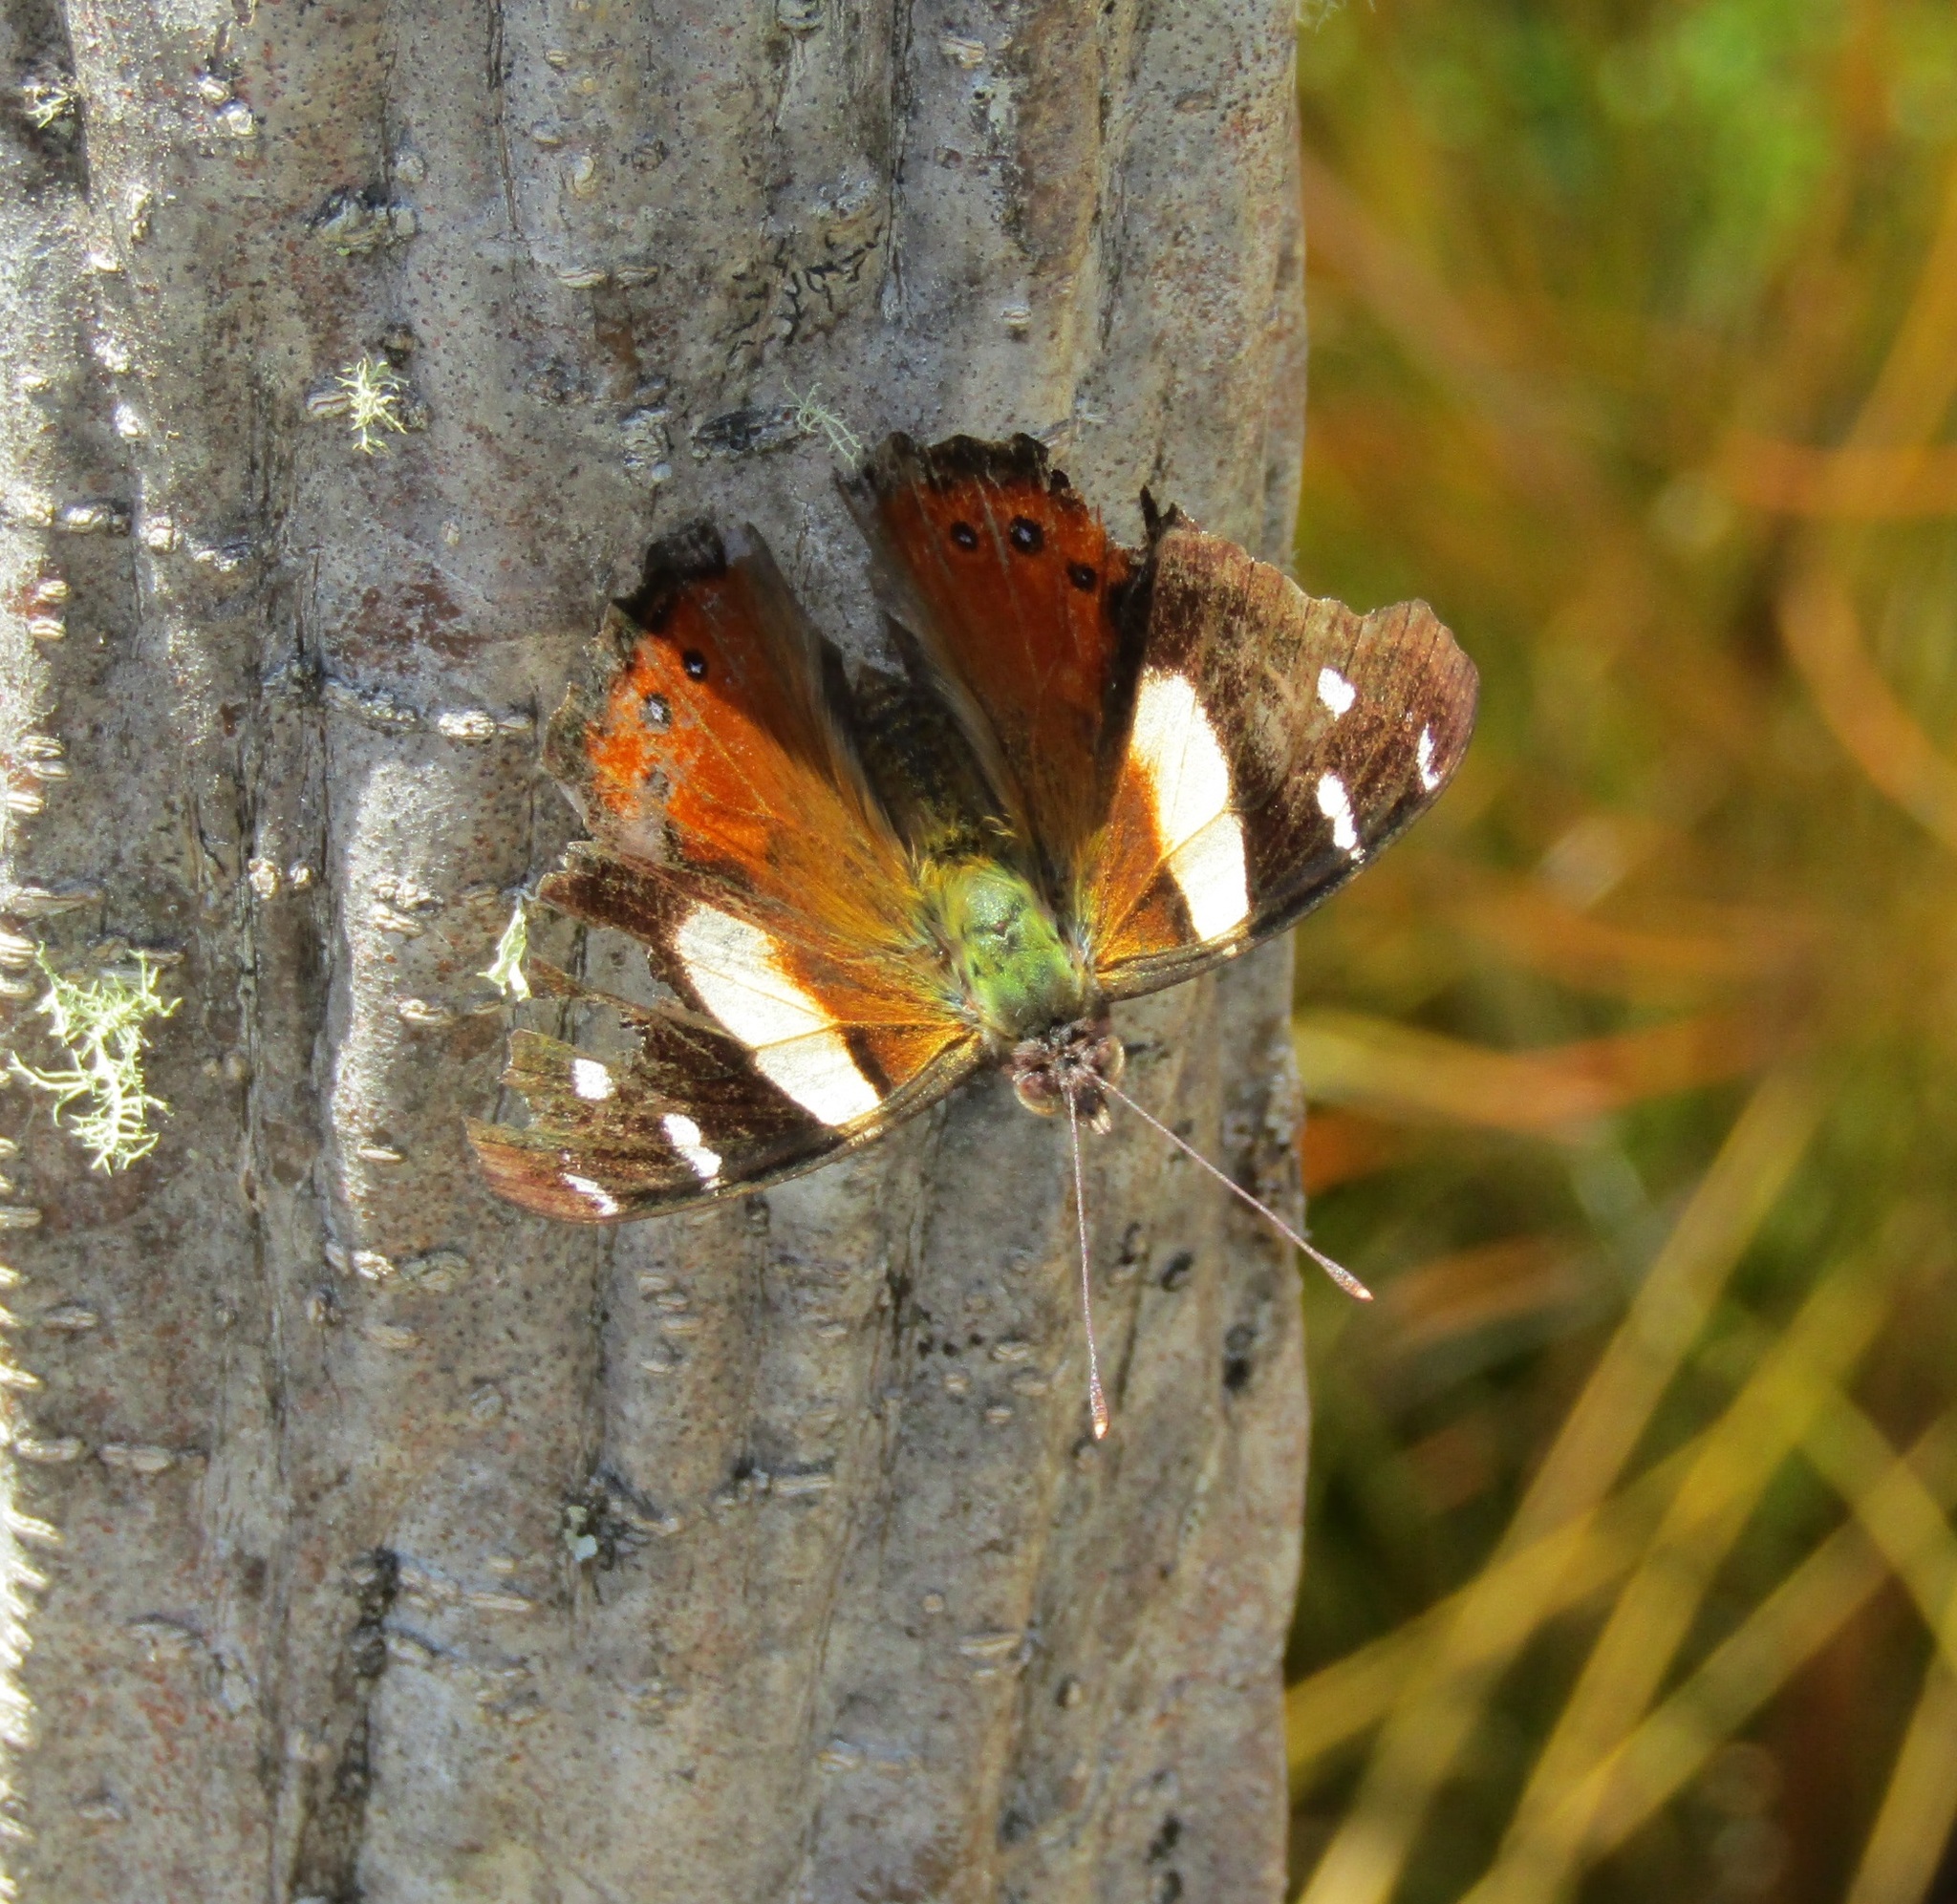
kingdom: Animalia
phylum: Arthropoda
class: Insecta
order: Lepidoptera
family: Nymphalidae
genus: Vanessa
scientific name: Vanessa itea
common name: Yellow admiral
